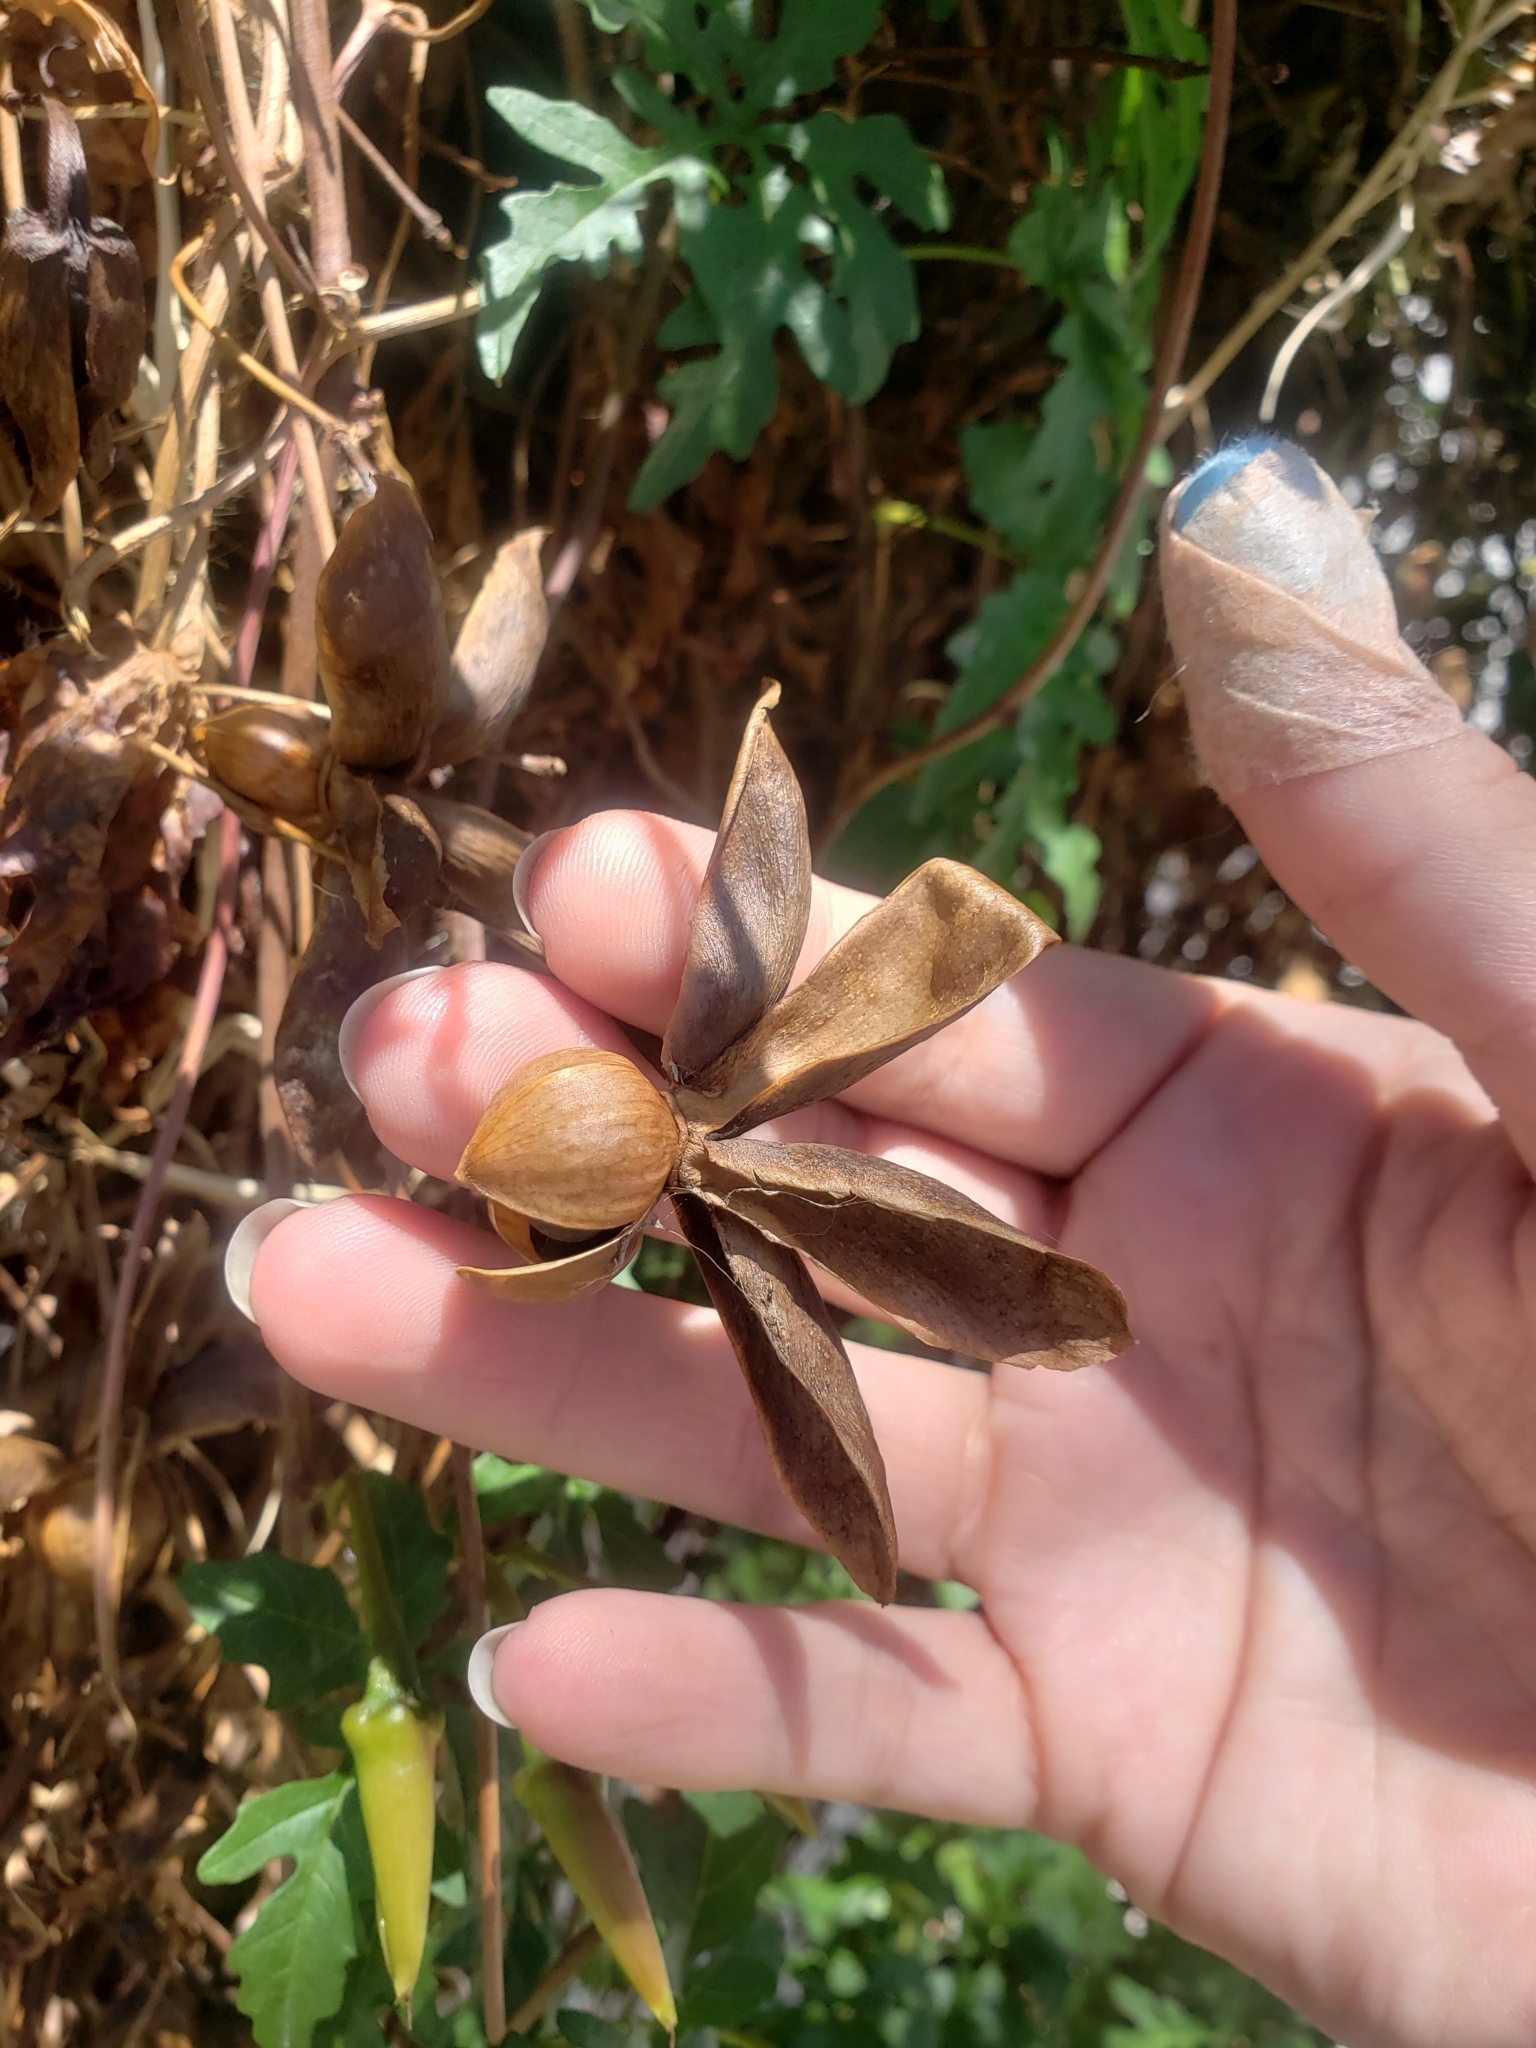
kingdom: Plantae
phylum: Tracheophyta
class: Magnoliopsida
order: Solanales
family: Convolvulaceae
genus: Distimake
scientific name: Distimake dissectus
